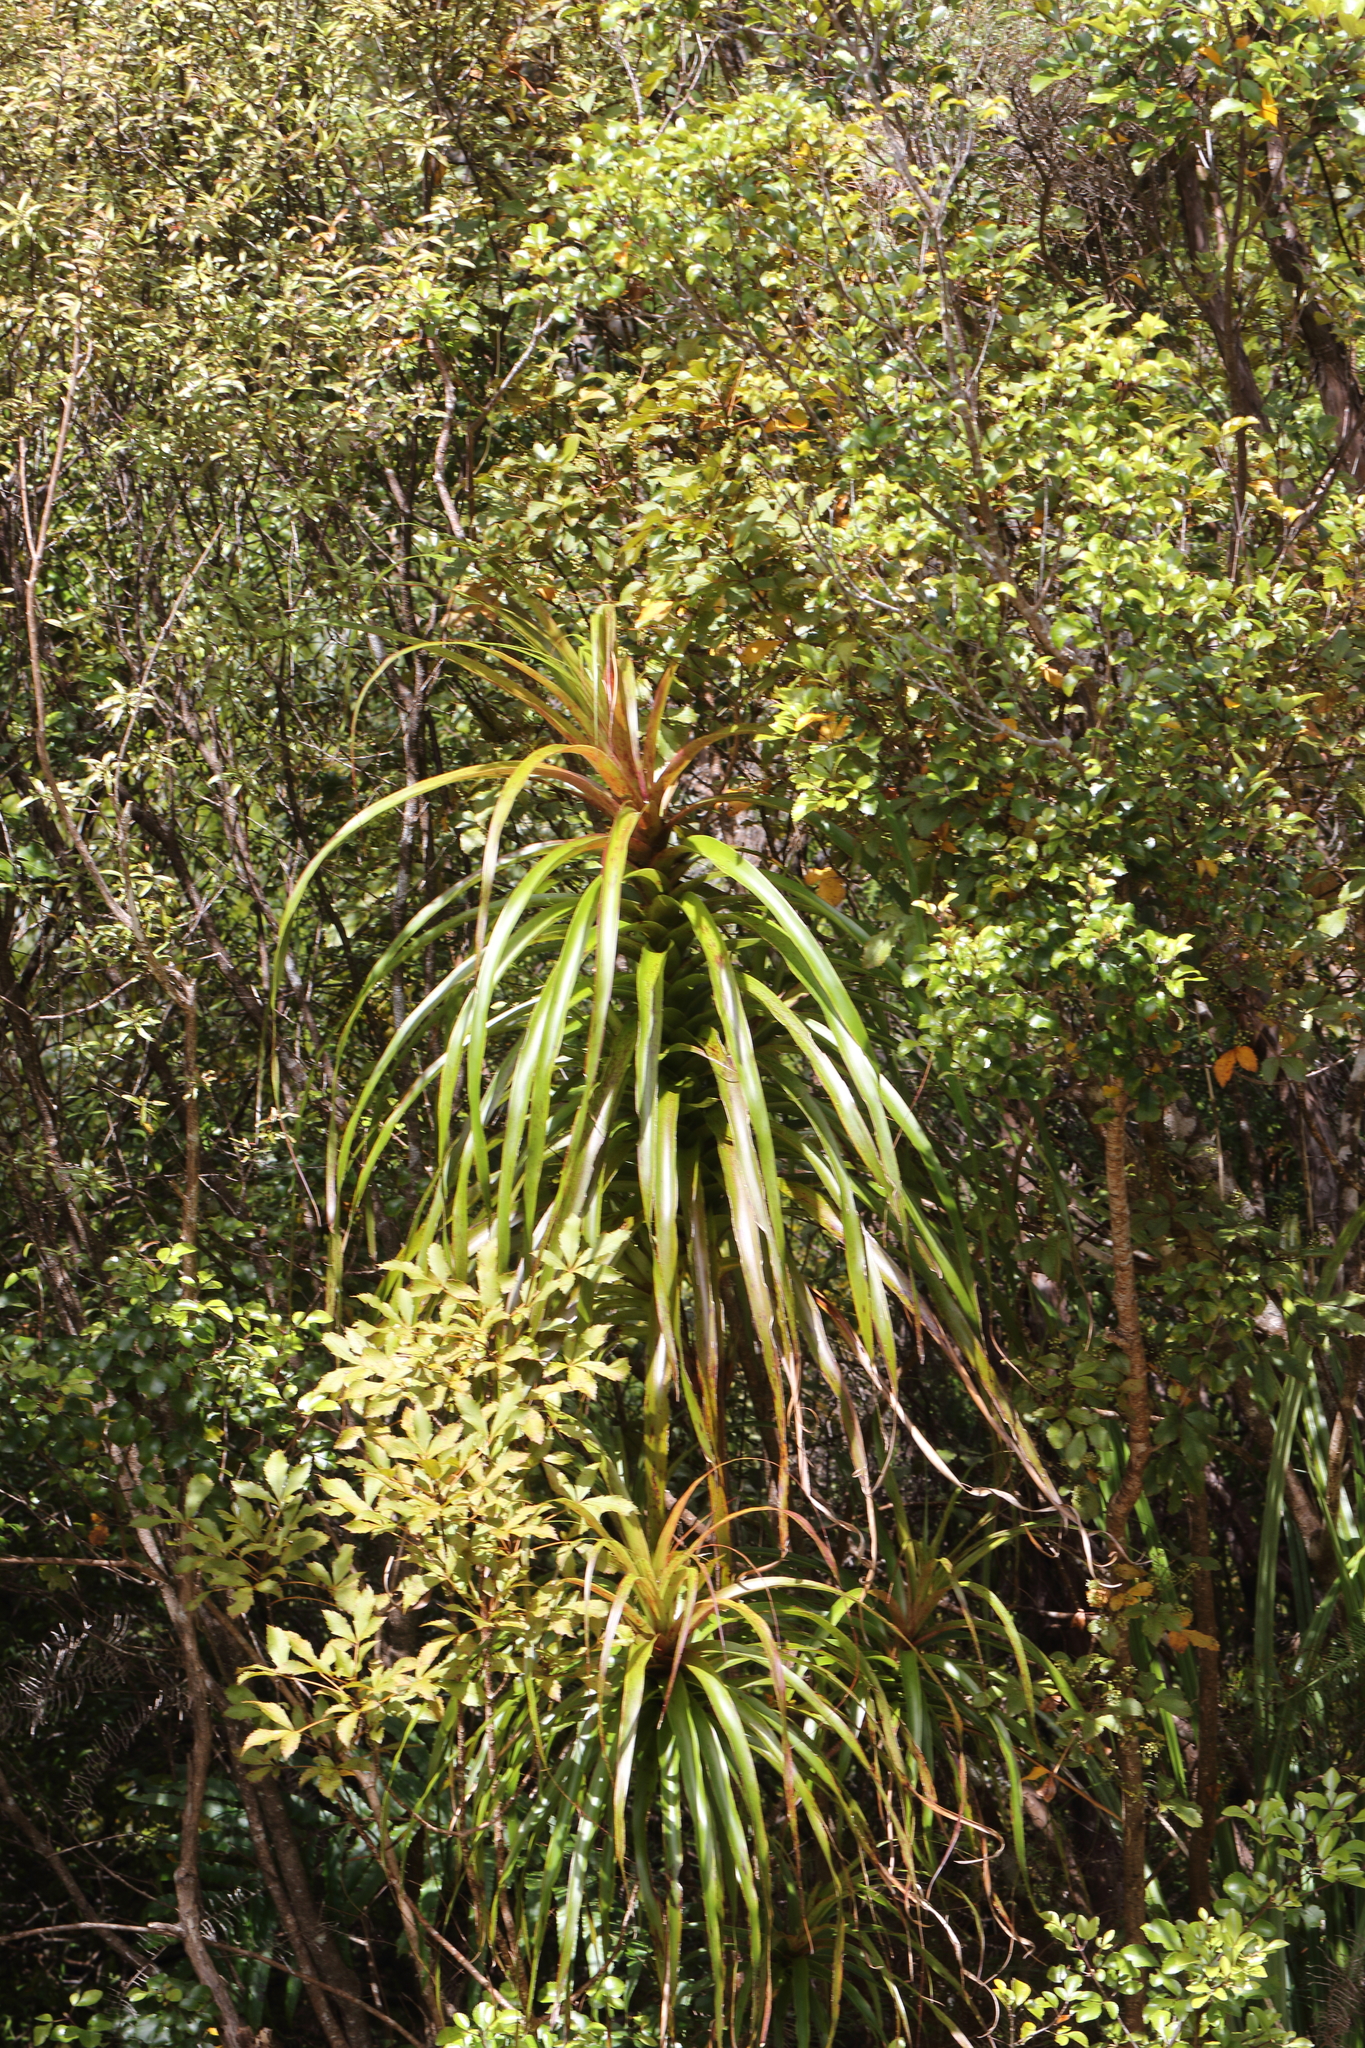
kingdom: Plantae
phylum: Tracheophyta
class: Magnoliopsida
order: Ericales
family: Ericaceae
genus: Dracophyllum
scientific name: Dracophyllum latifolium
